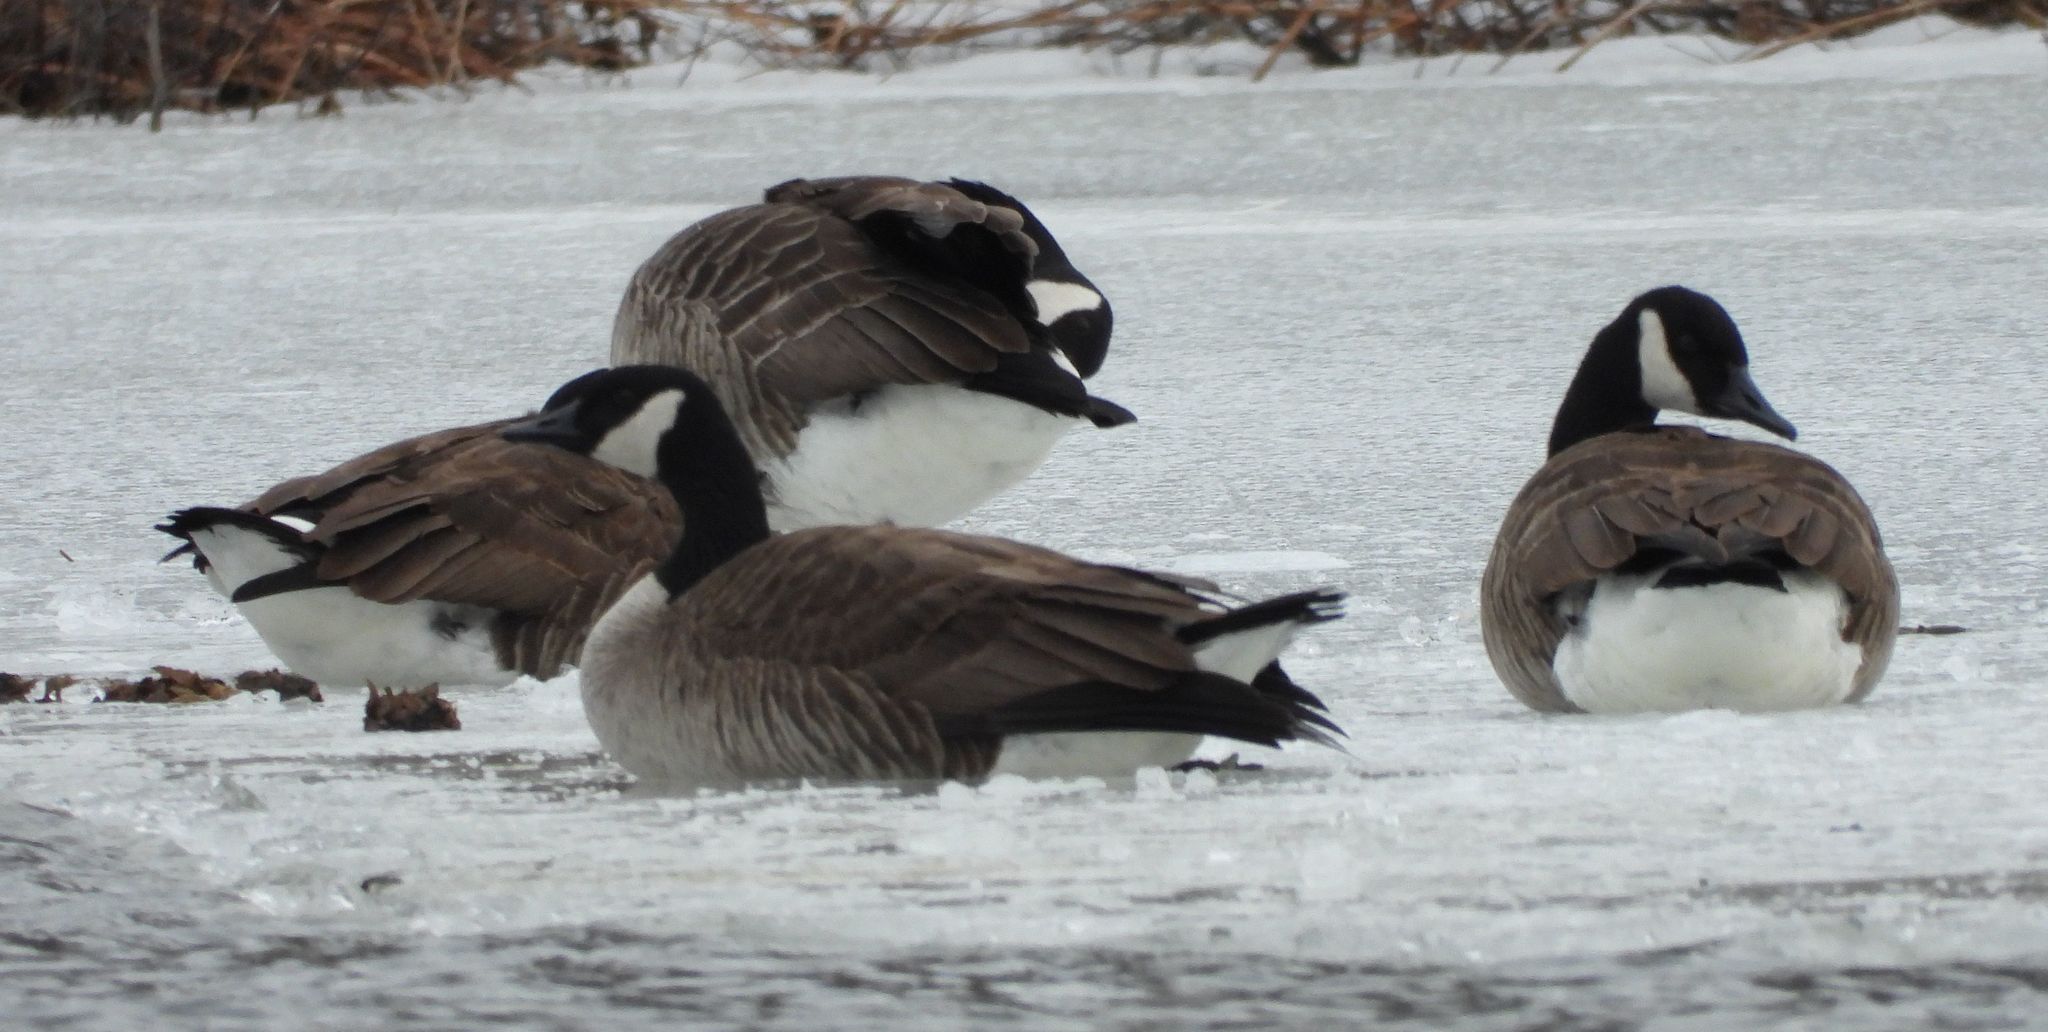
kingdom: Animalia
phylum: Chordata
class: Aves
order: Anseriformes
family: Anatidae
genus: Branta
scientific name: Branta canadensis
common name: Canada goose
